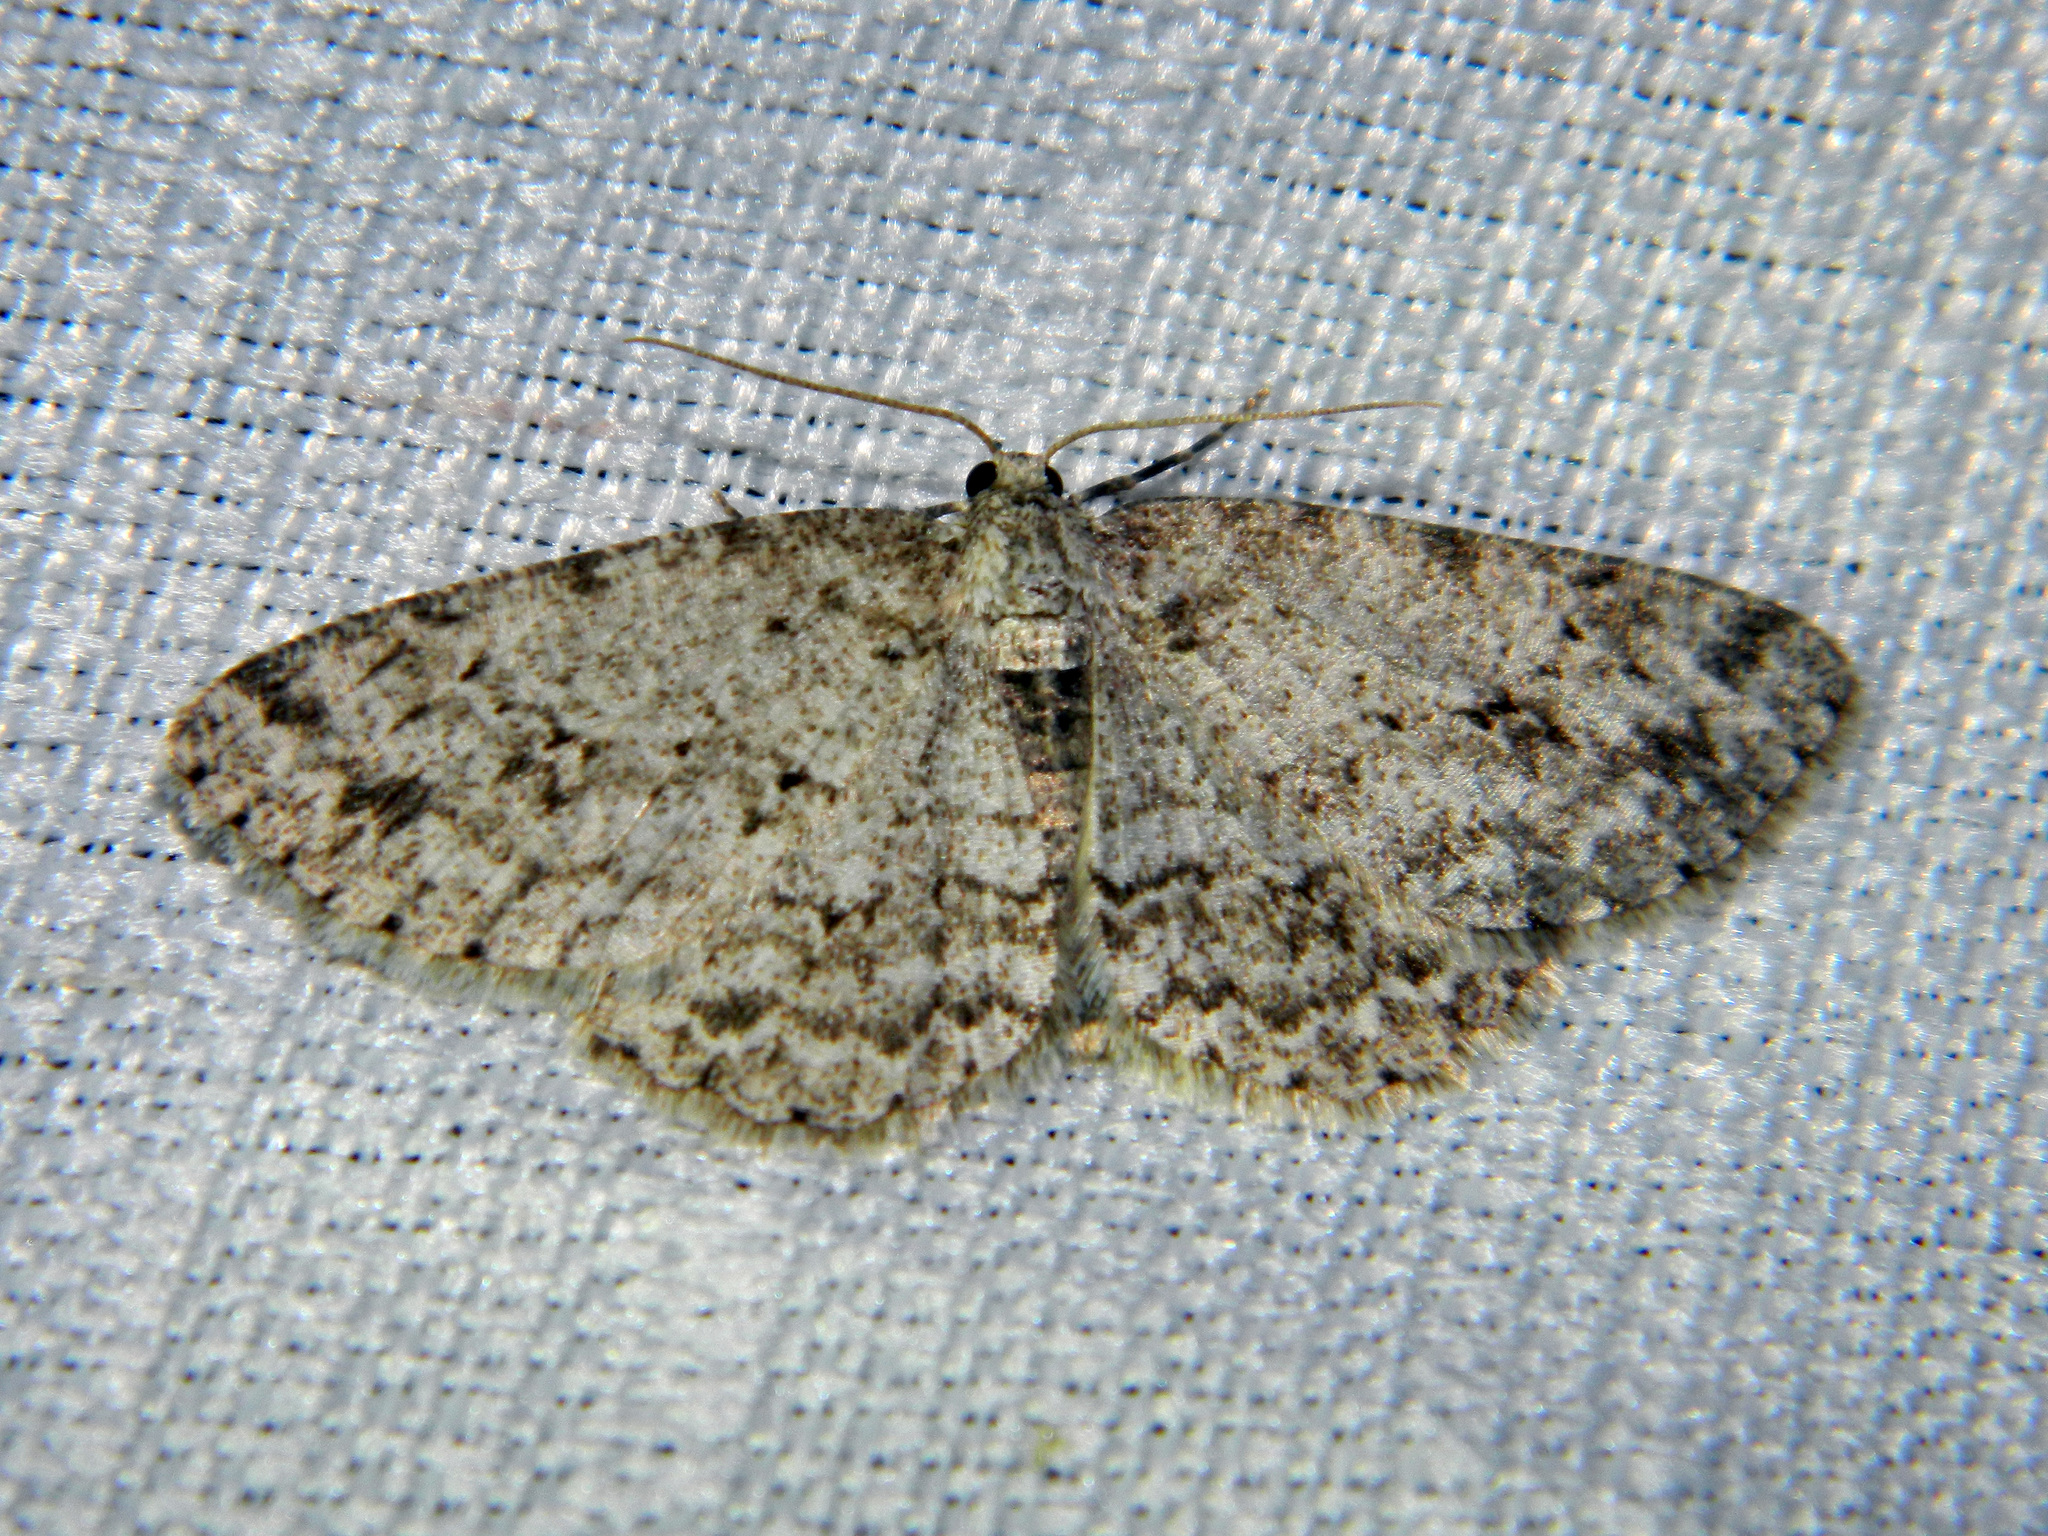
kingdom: Animalia
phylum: Arthropoda
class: Insecta
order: Lepidoptera
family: Geometridae
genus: Ectropis
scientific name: Ectropis crepuscularia
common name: Engrailed
